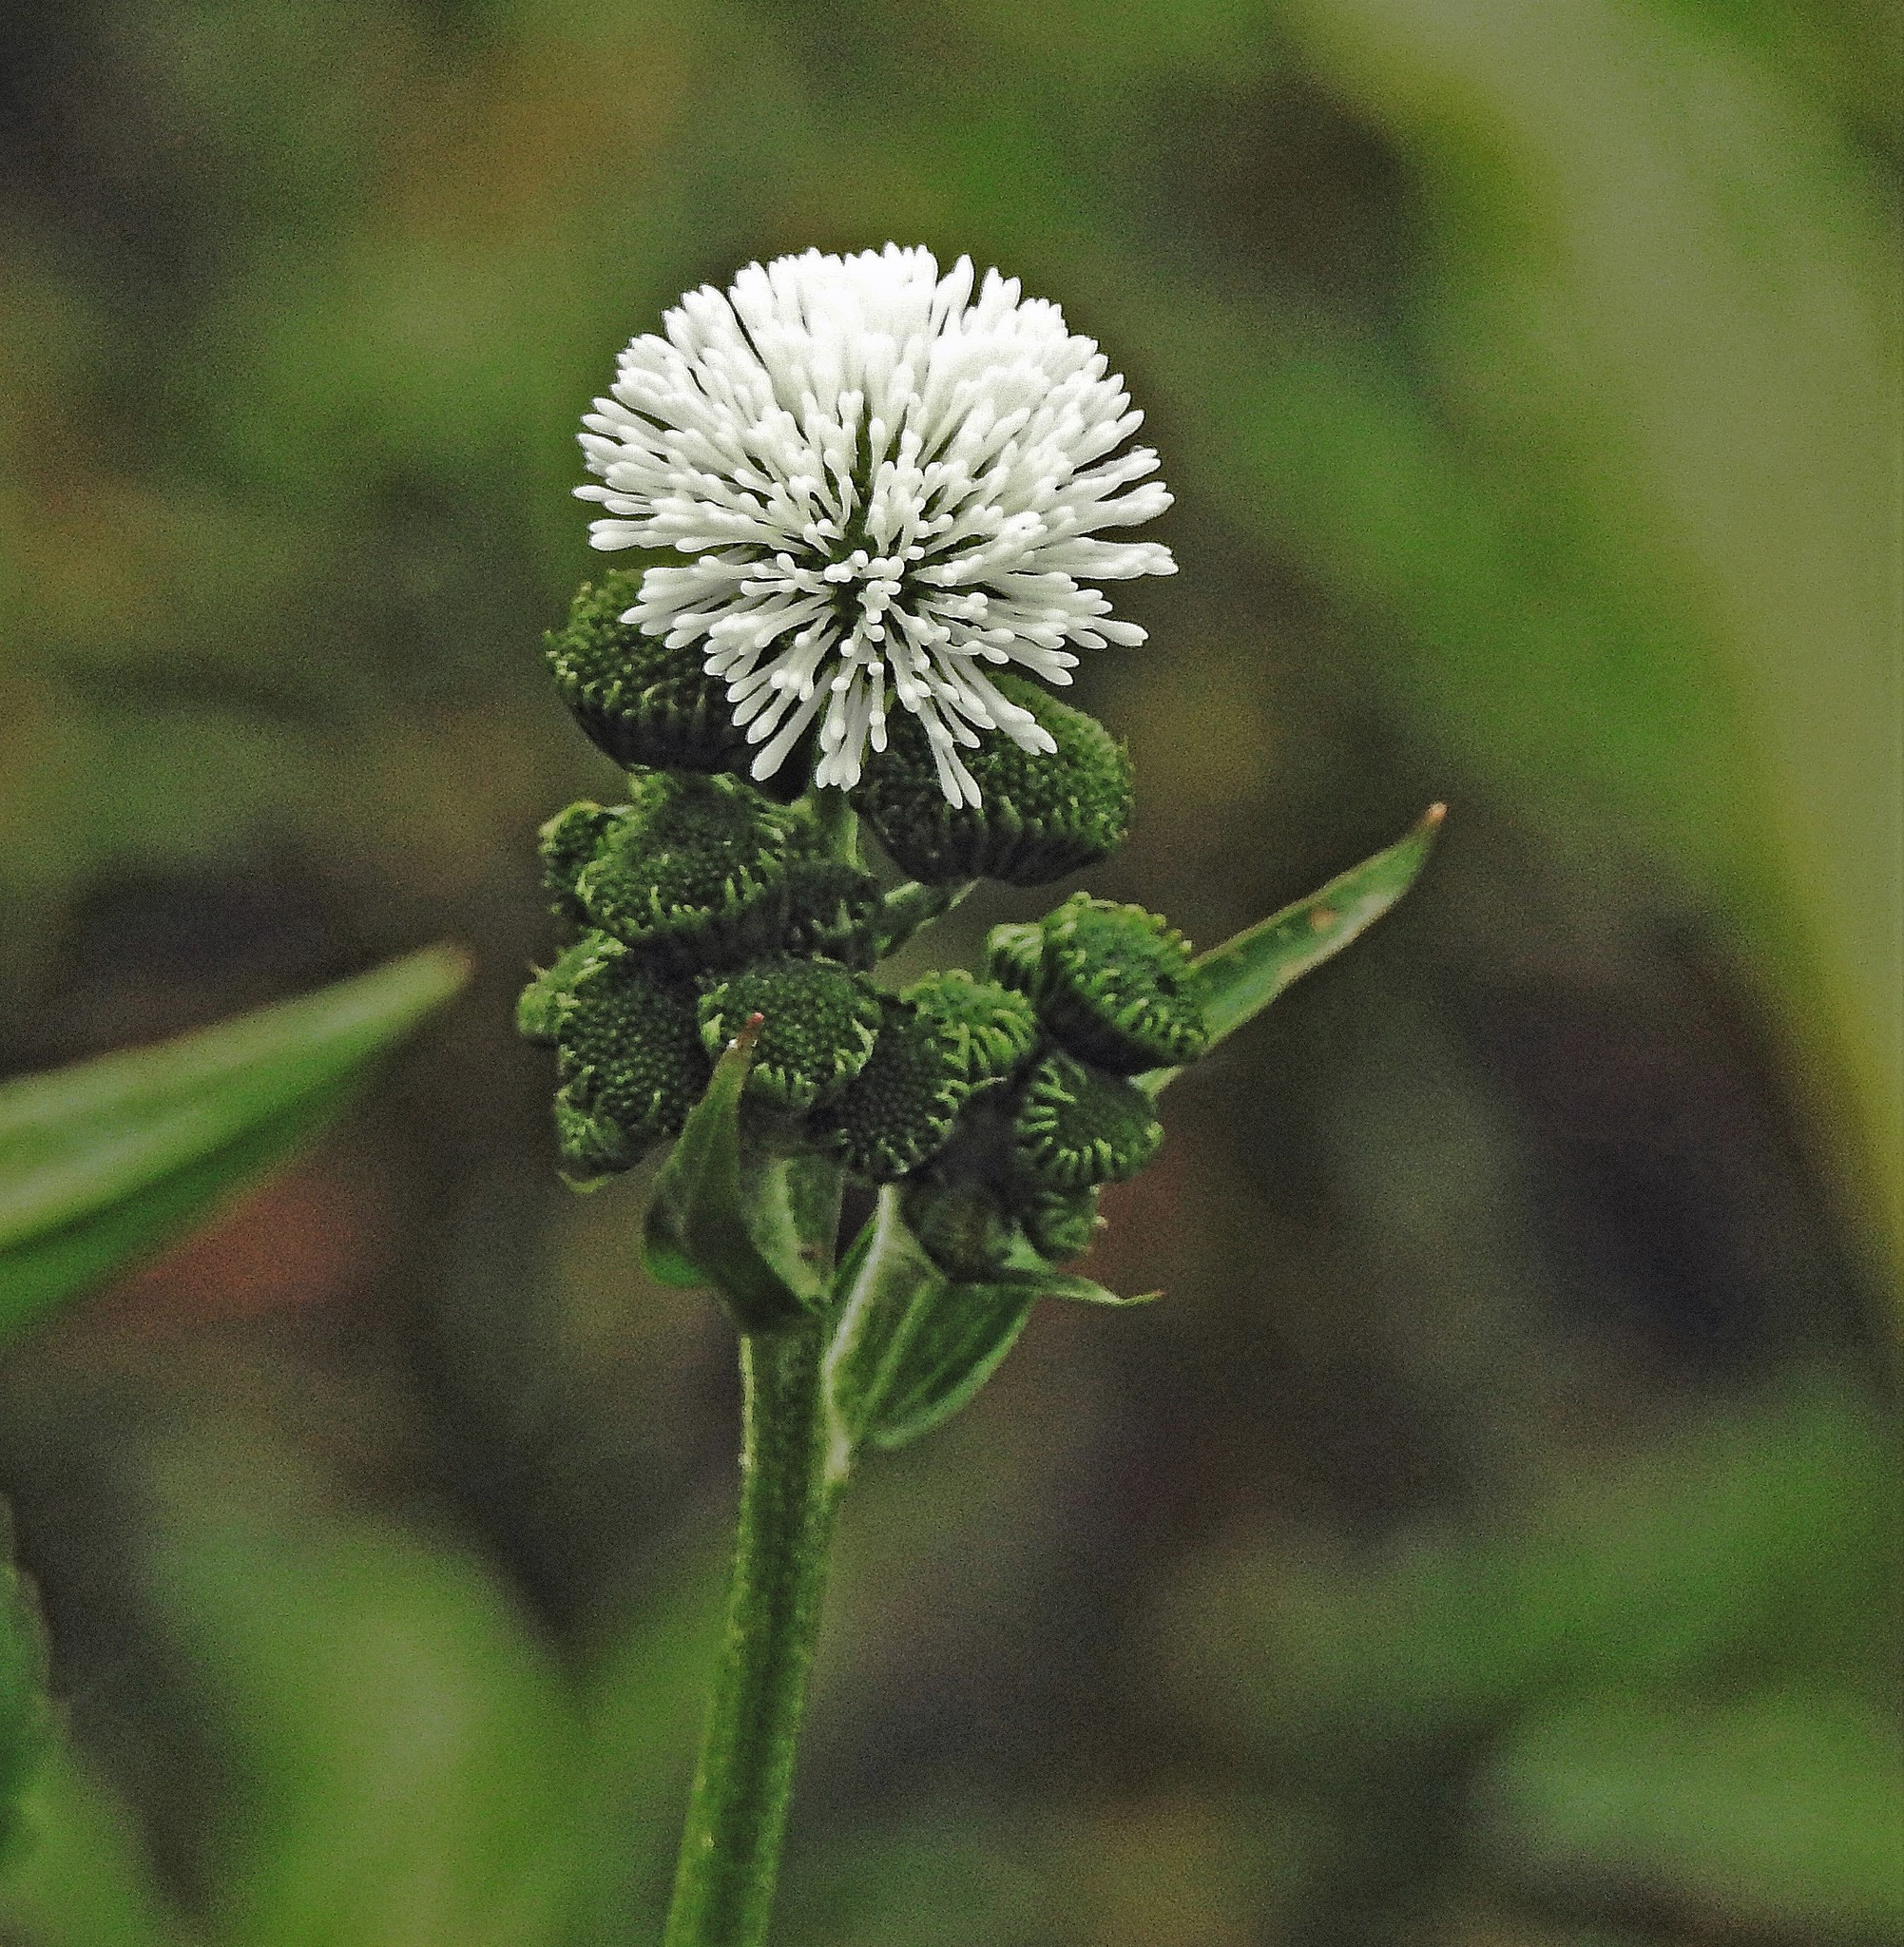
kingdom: Plantae
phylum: Tracheophyta
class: Magnoliopsida
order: Asterales
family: Asteraceae
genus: Gymnocoronis
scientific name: Gymnocoronis spilanthoides
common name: Senegal teaplant
